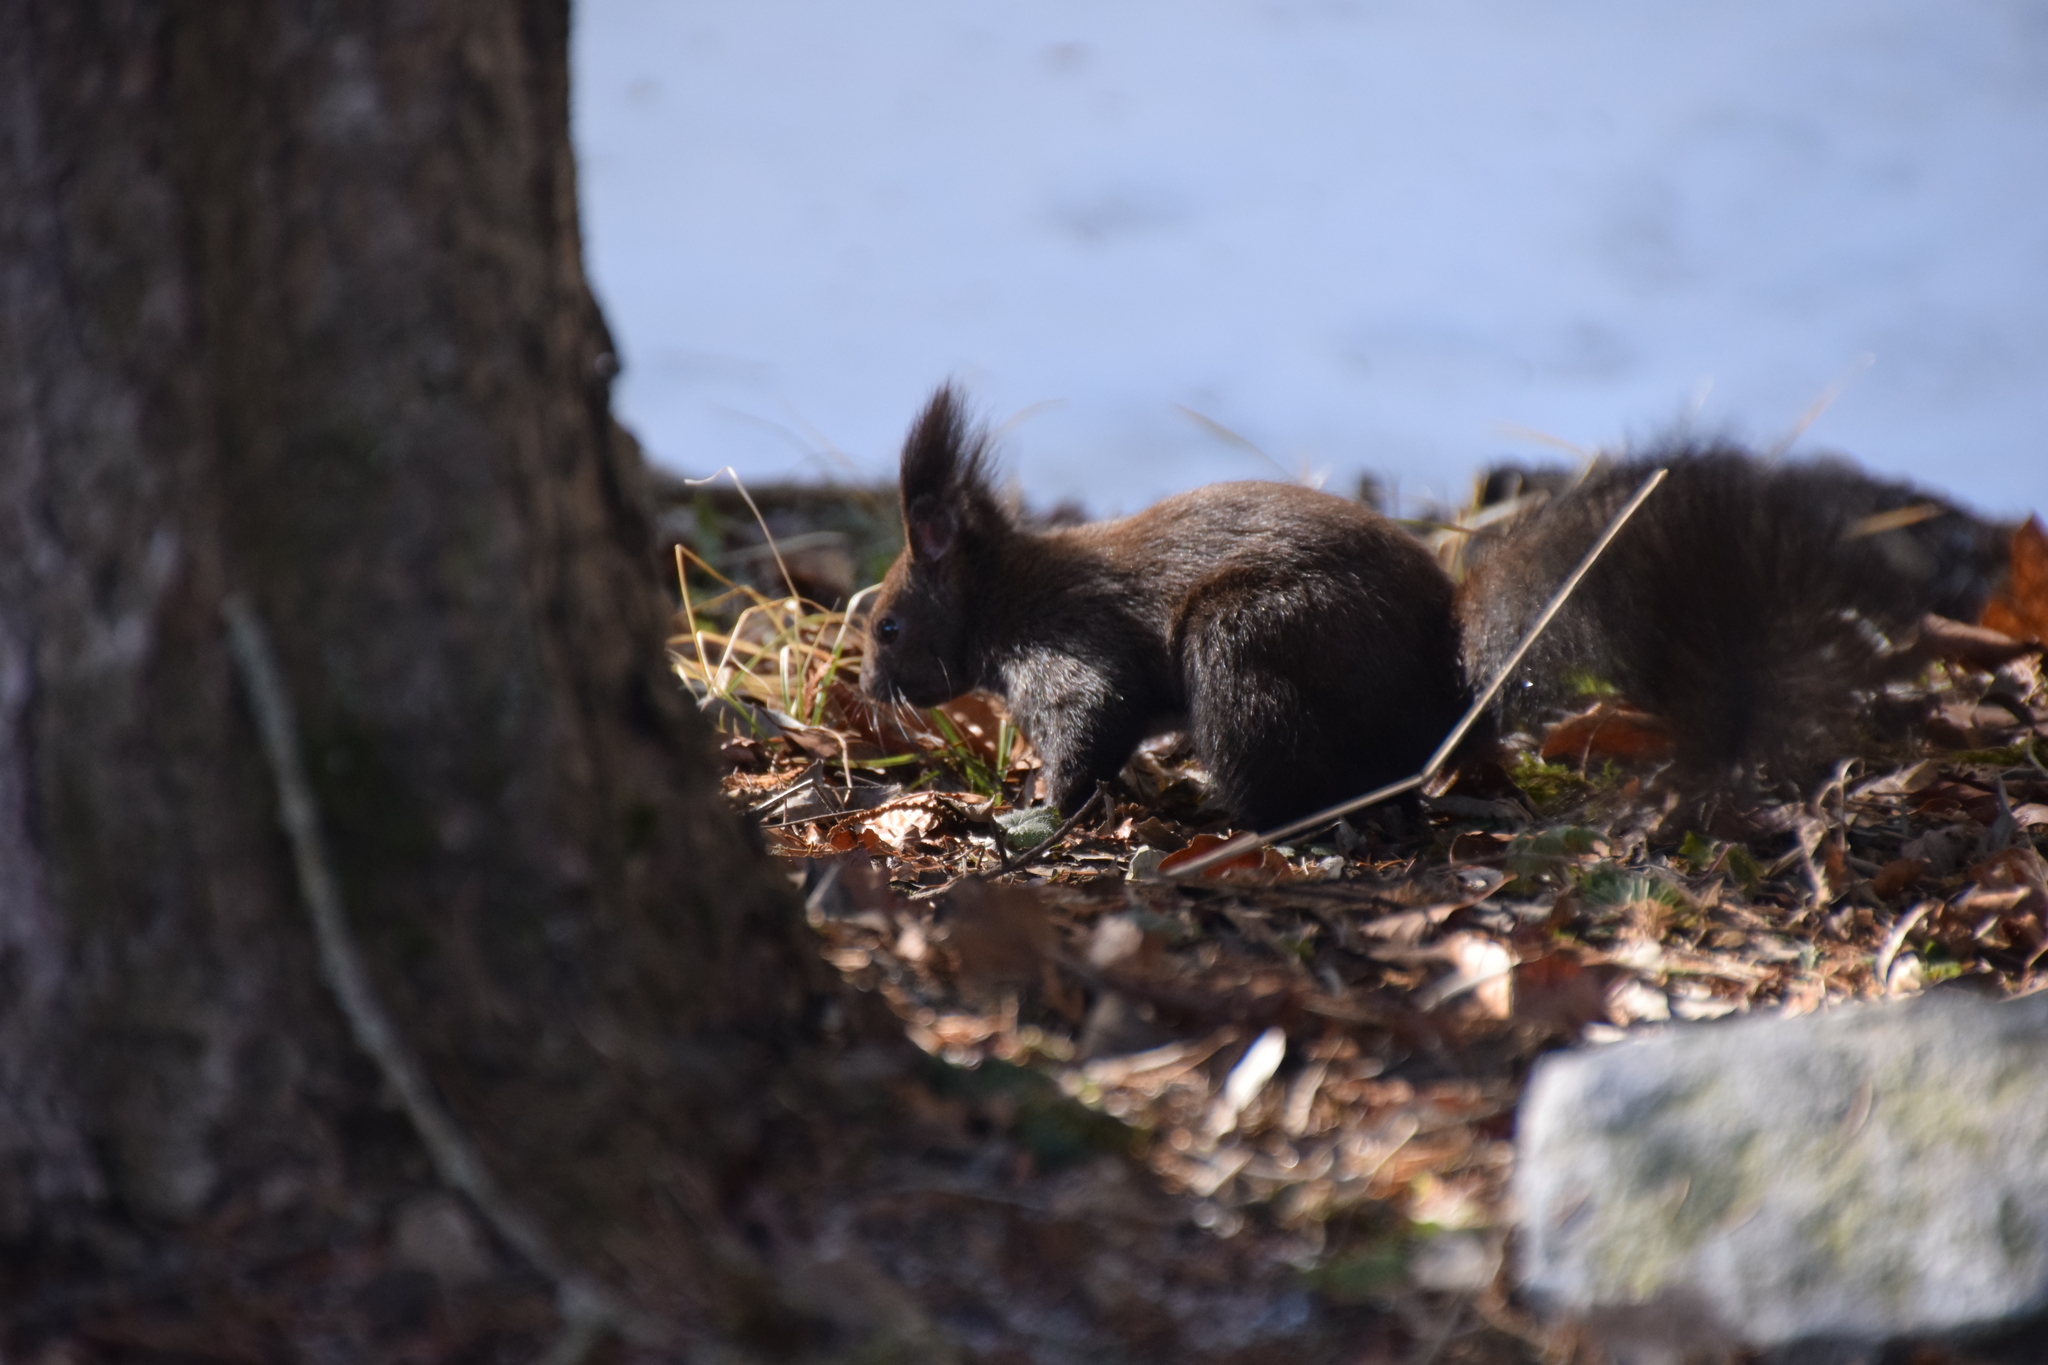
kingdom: Animalia
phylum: Chordata
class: Mammalia
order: Rodentia
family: Sciuridae
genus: Sciurus
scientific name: Sciurus vulgaris
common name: Eurasian red squirrel
